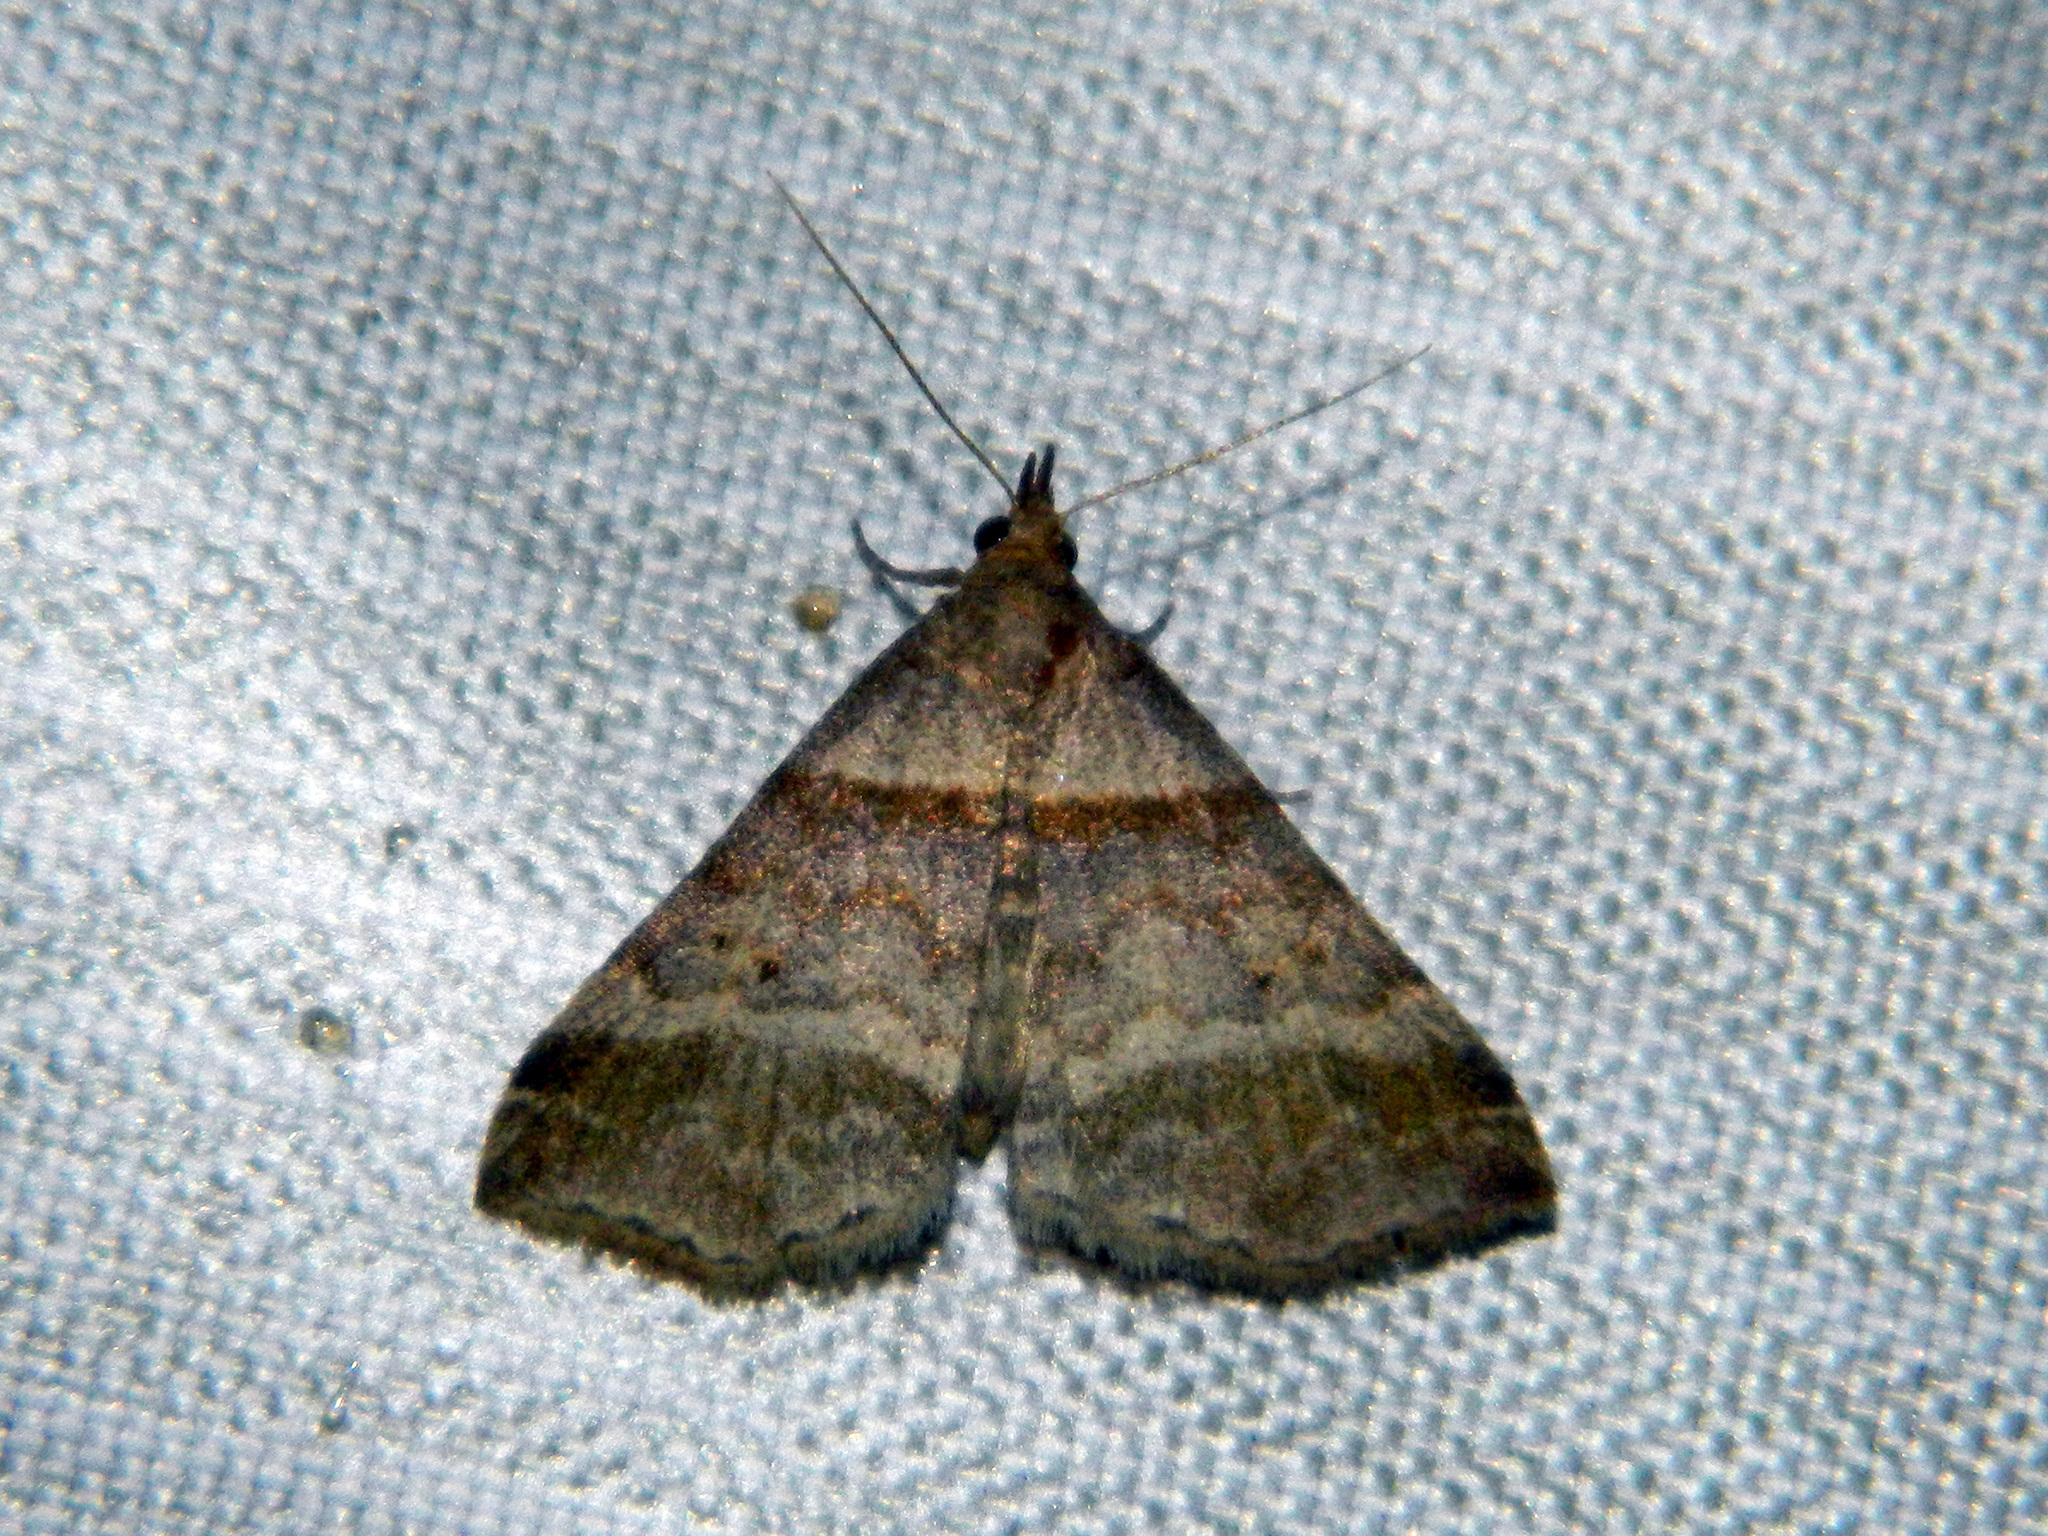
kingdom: Animalia
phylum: Arthropoda
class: Insecta
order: Lepidoptera
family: Erebidae
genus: Phaeolita
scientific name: Phaeolita pyramusalis
